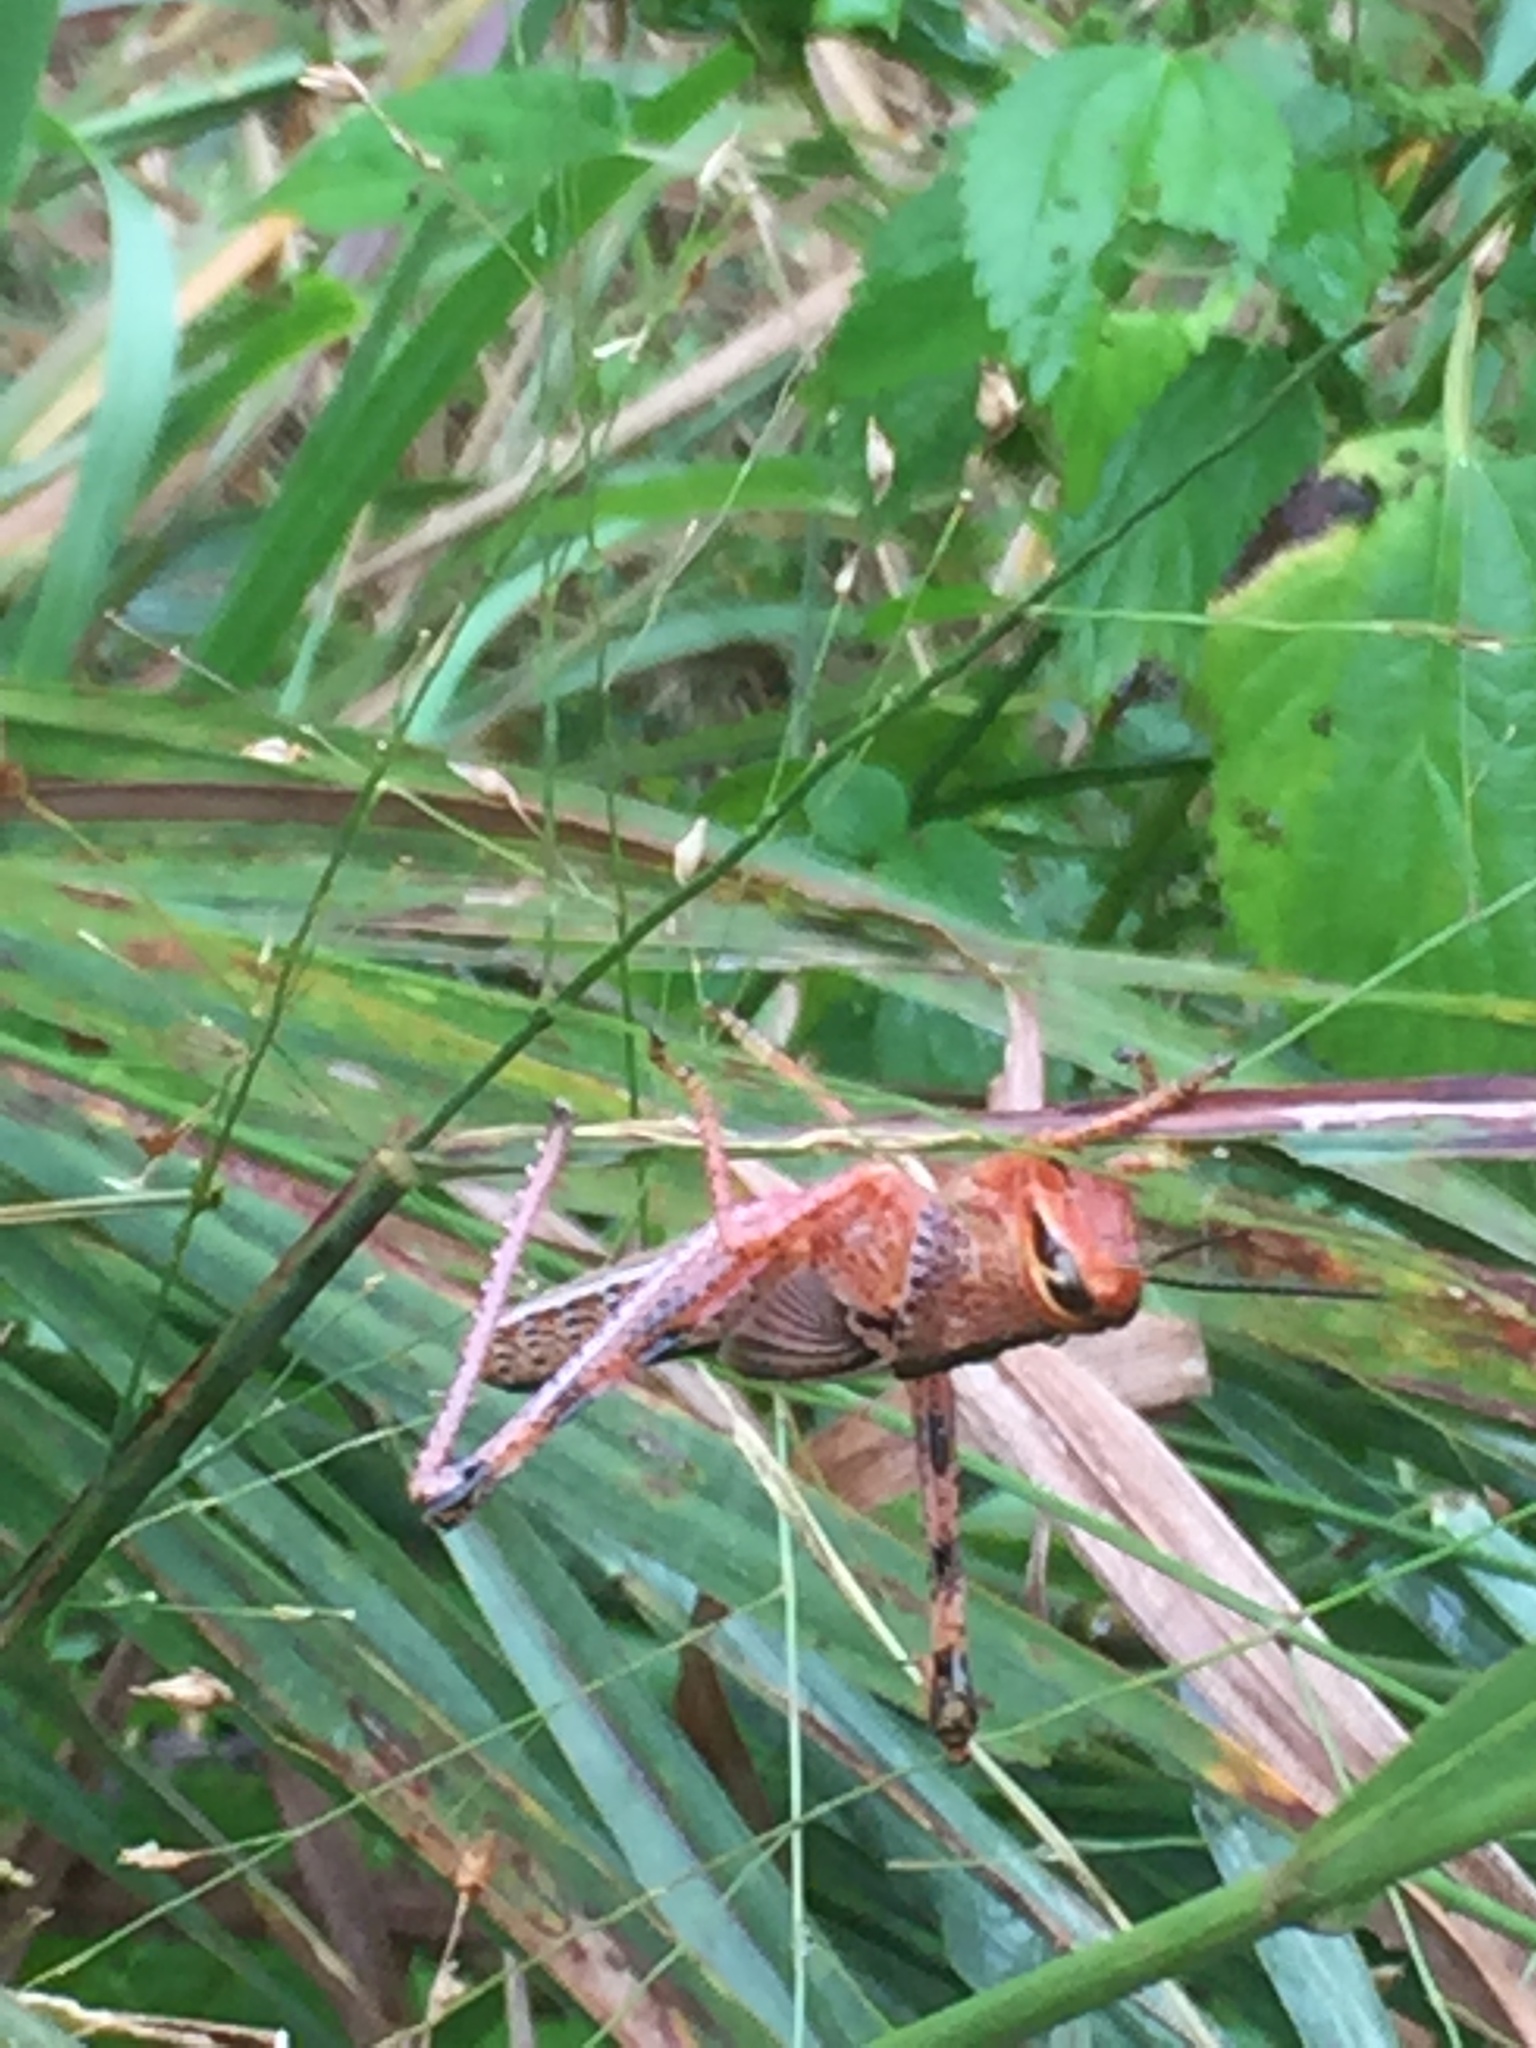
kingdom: Animalia
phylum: Arthropoda
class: Insecta
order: Orthoptera
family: Acrididae
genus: Schistocerca
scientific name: Schistocerca americana
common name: American bird locust
